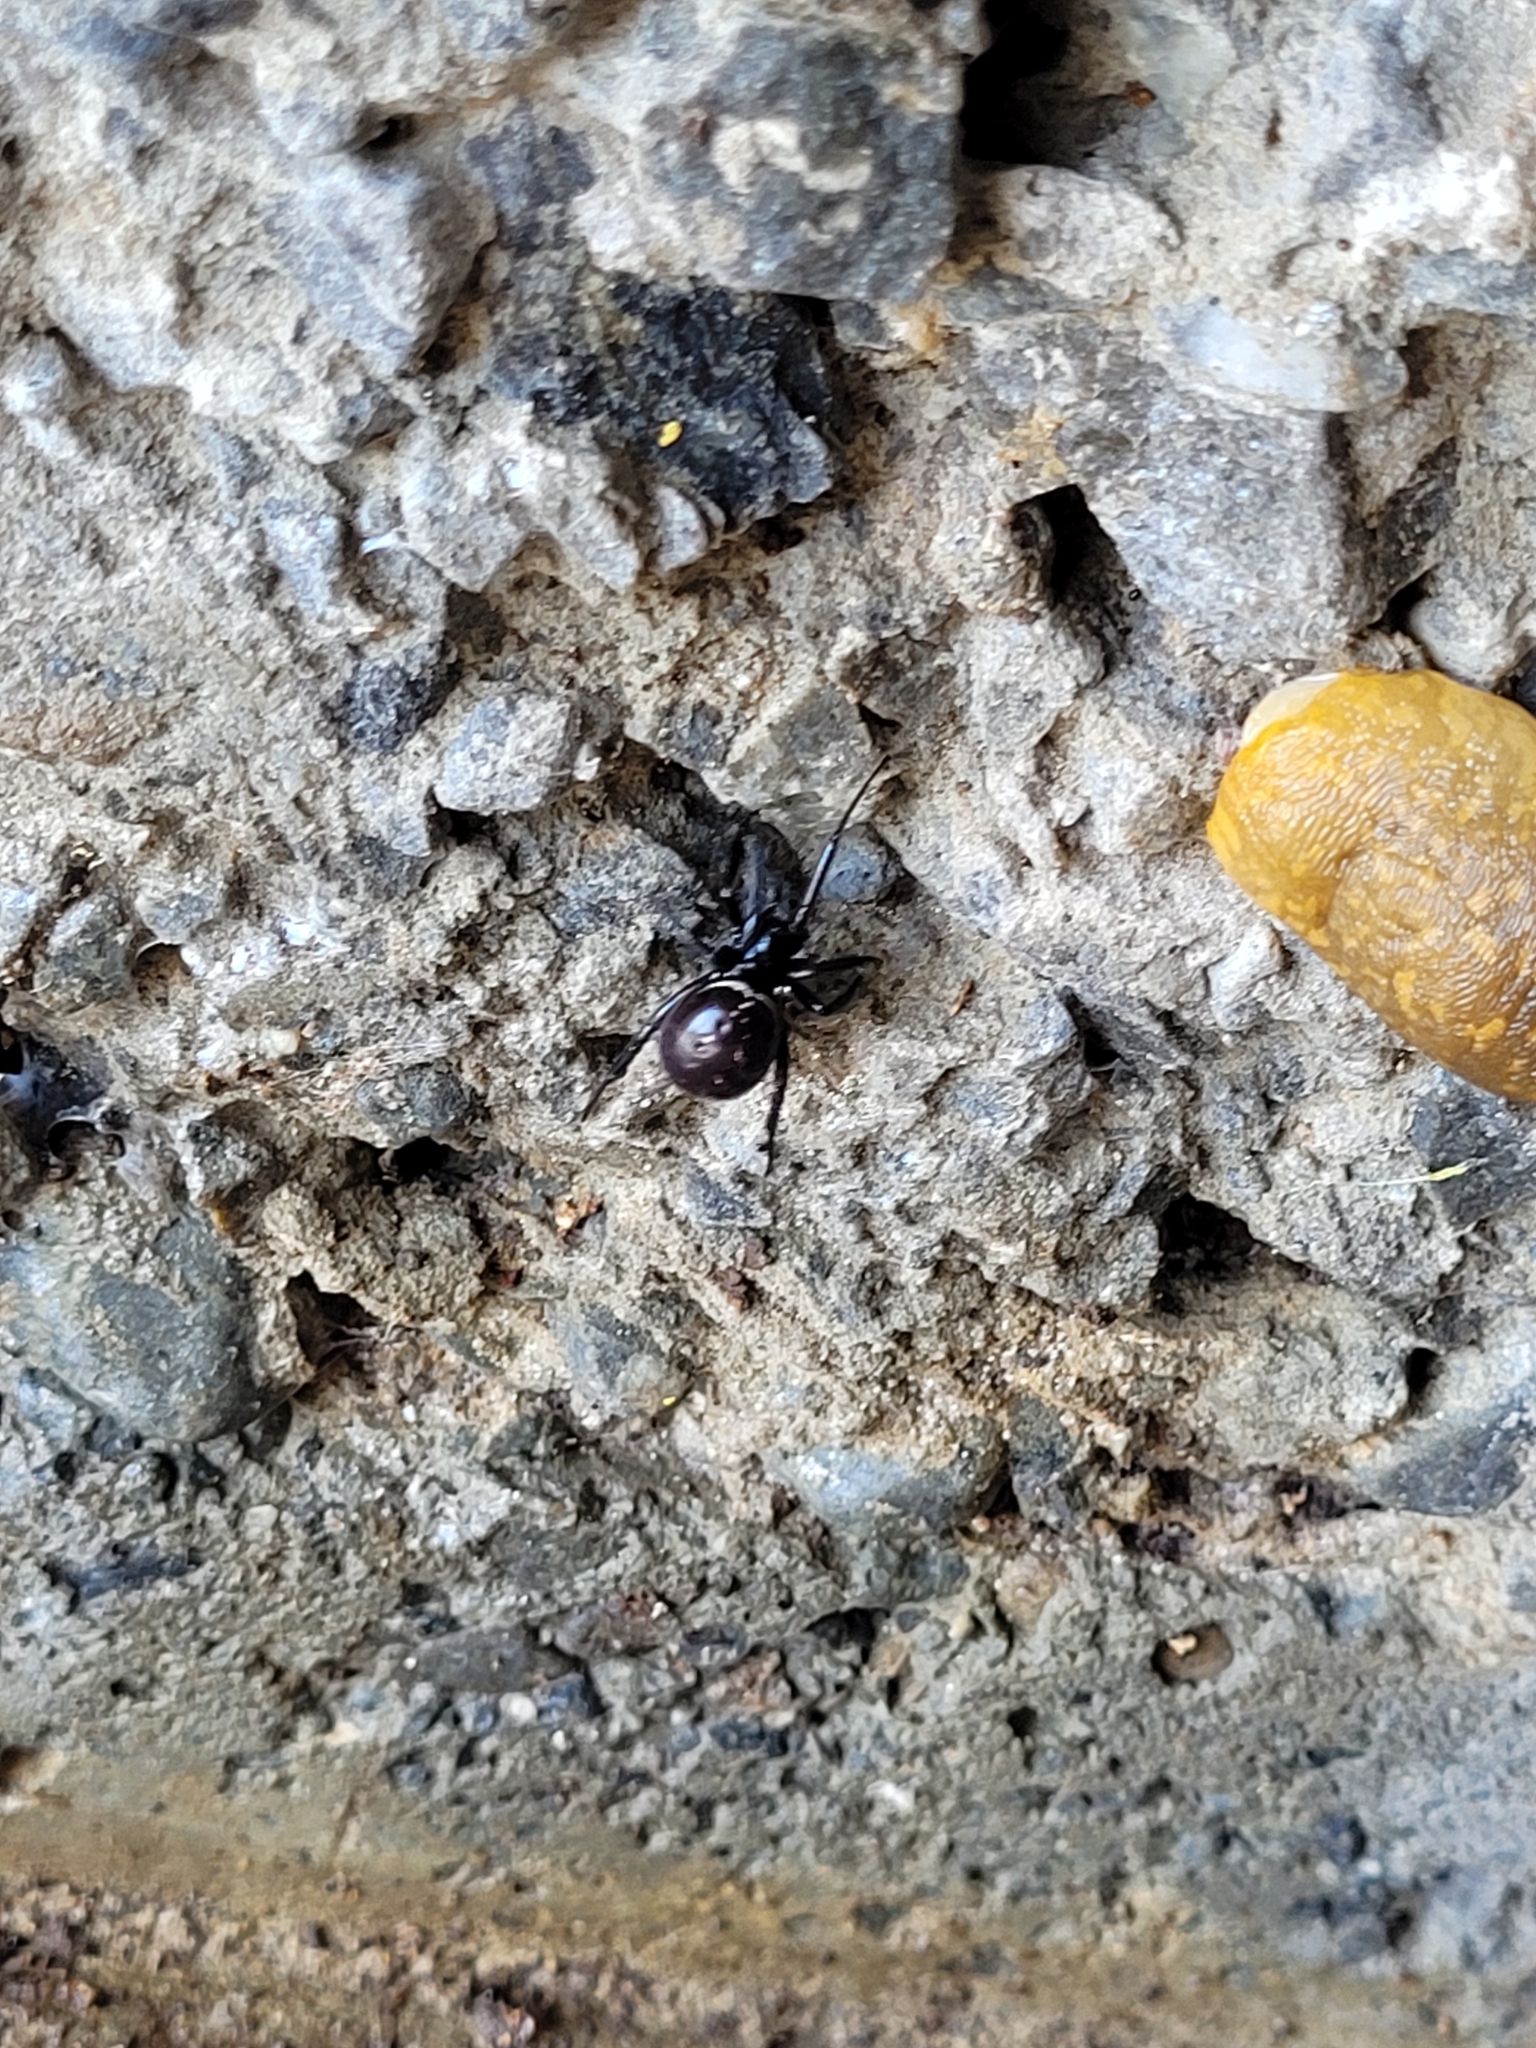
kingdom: Animalia
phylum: Mollusca
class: Gastropoda
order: Stylommatophora
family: Limacidae
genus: Limacus
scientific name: Limacus flavus
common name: Yellow gardenslug
